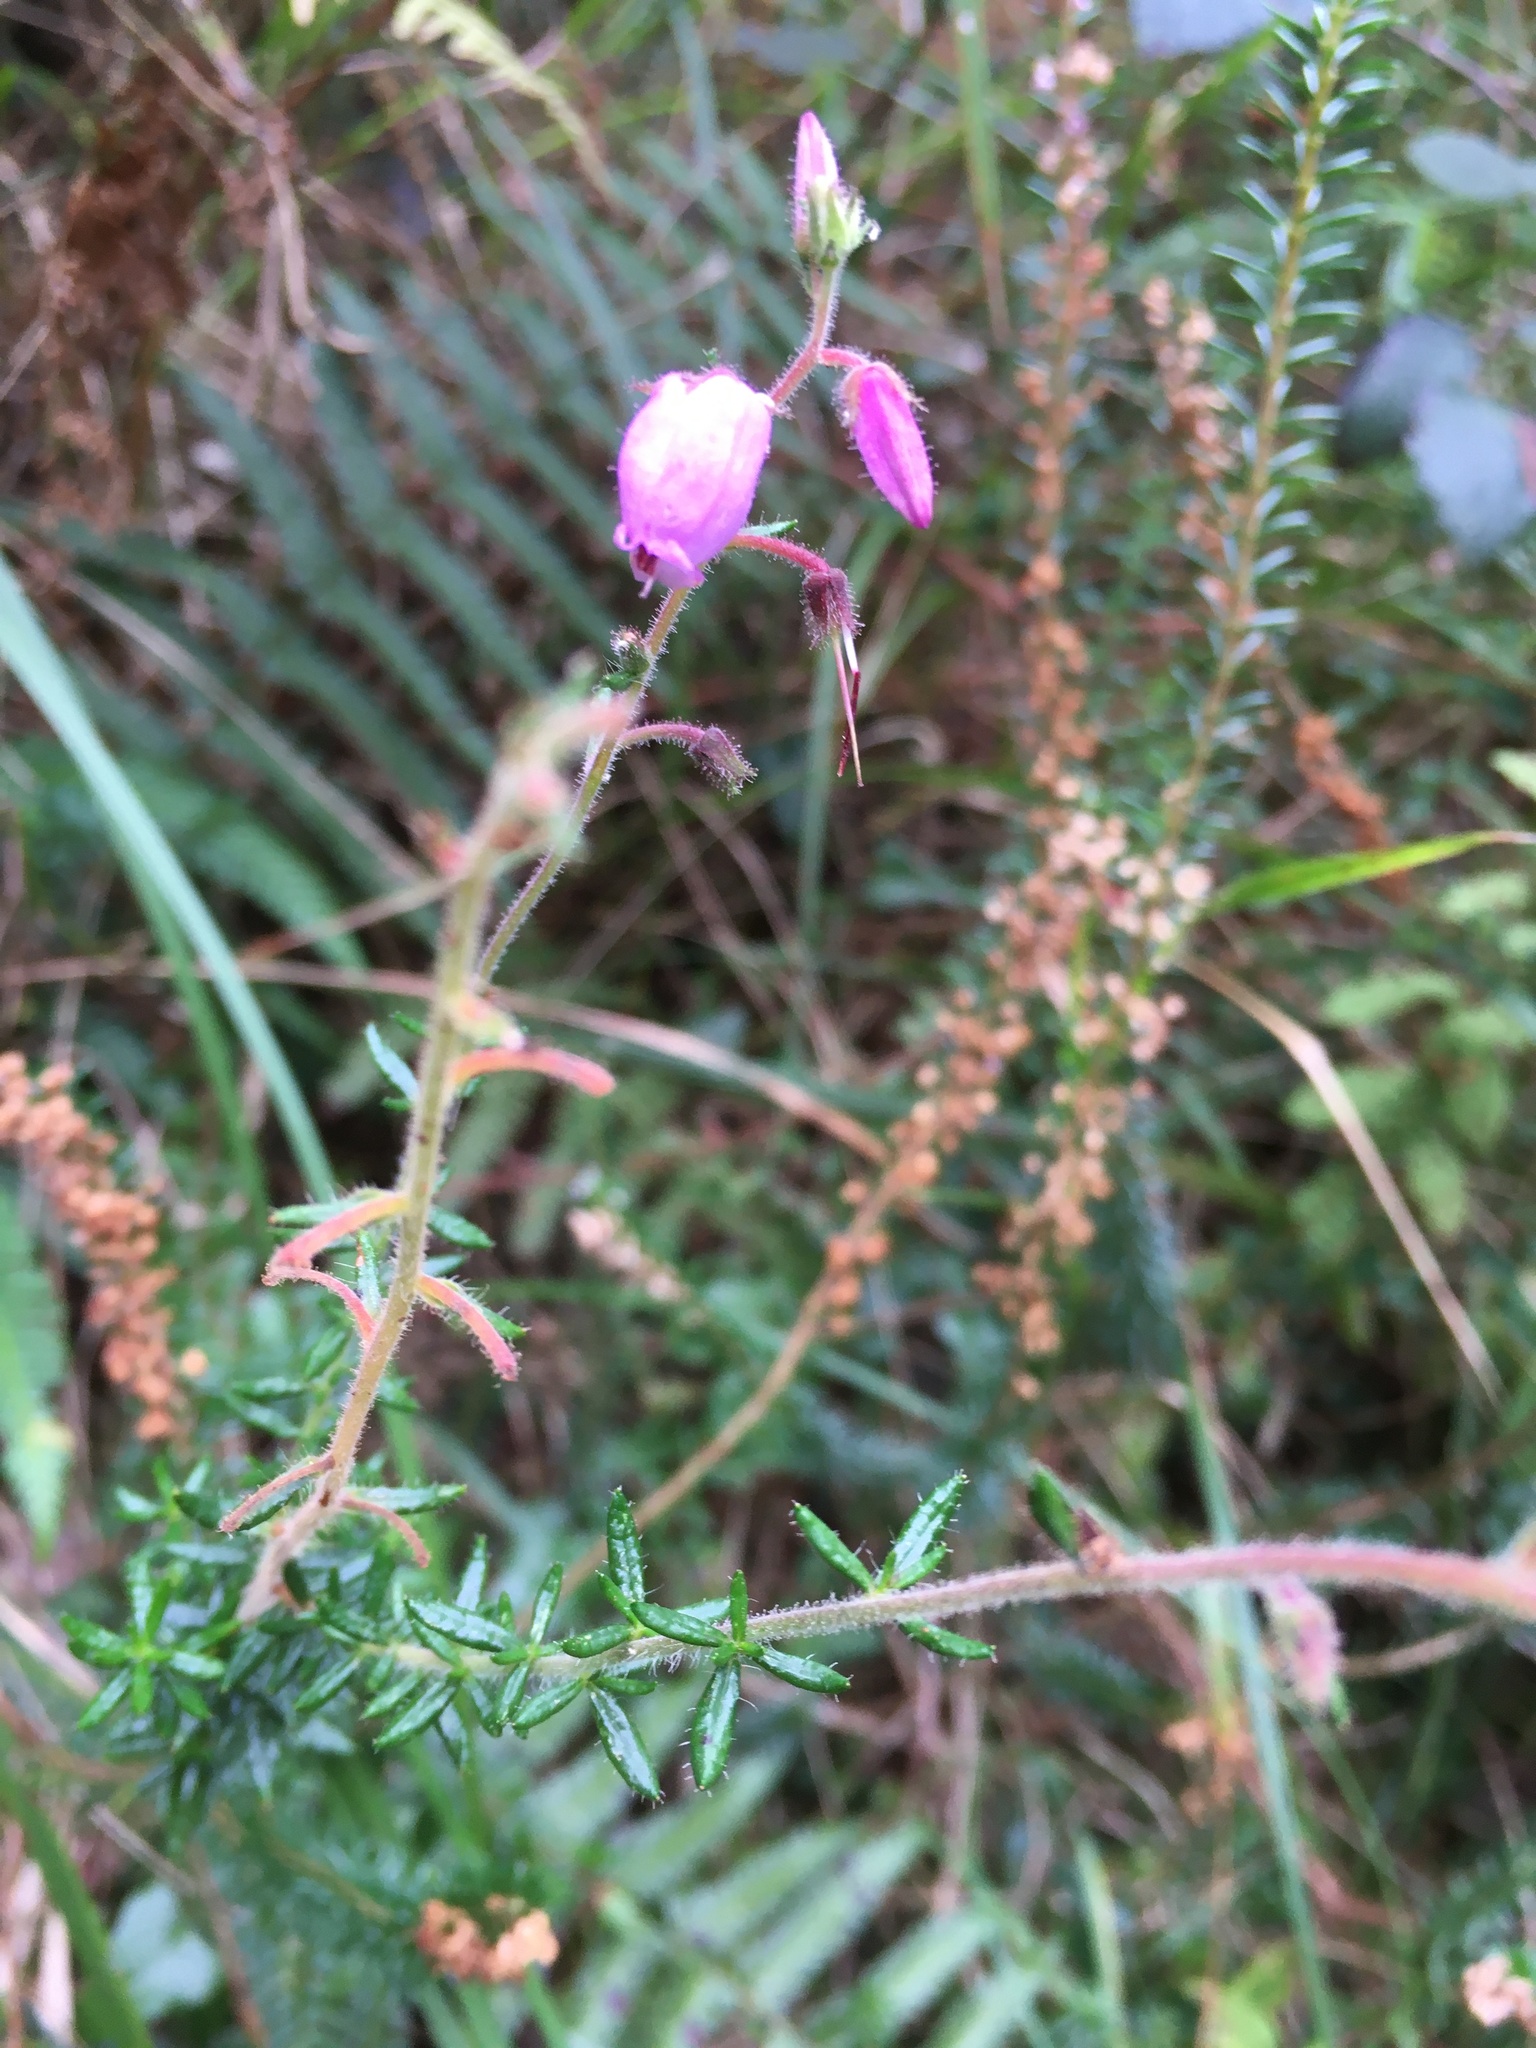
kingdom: Plantae
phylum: Tracheophyta
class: Magnoliopsida
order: Ericales
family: Ericaceae
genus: Daboecia
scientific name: Daboecia cantabrica
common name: St. dabeoc's-heath
